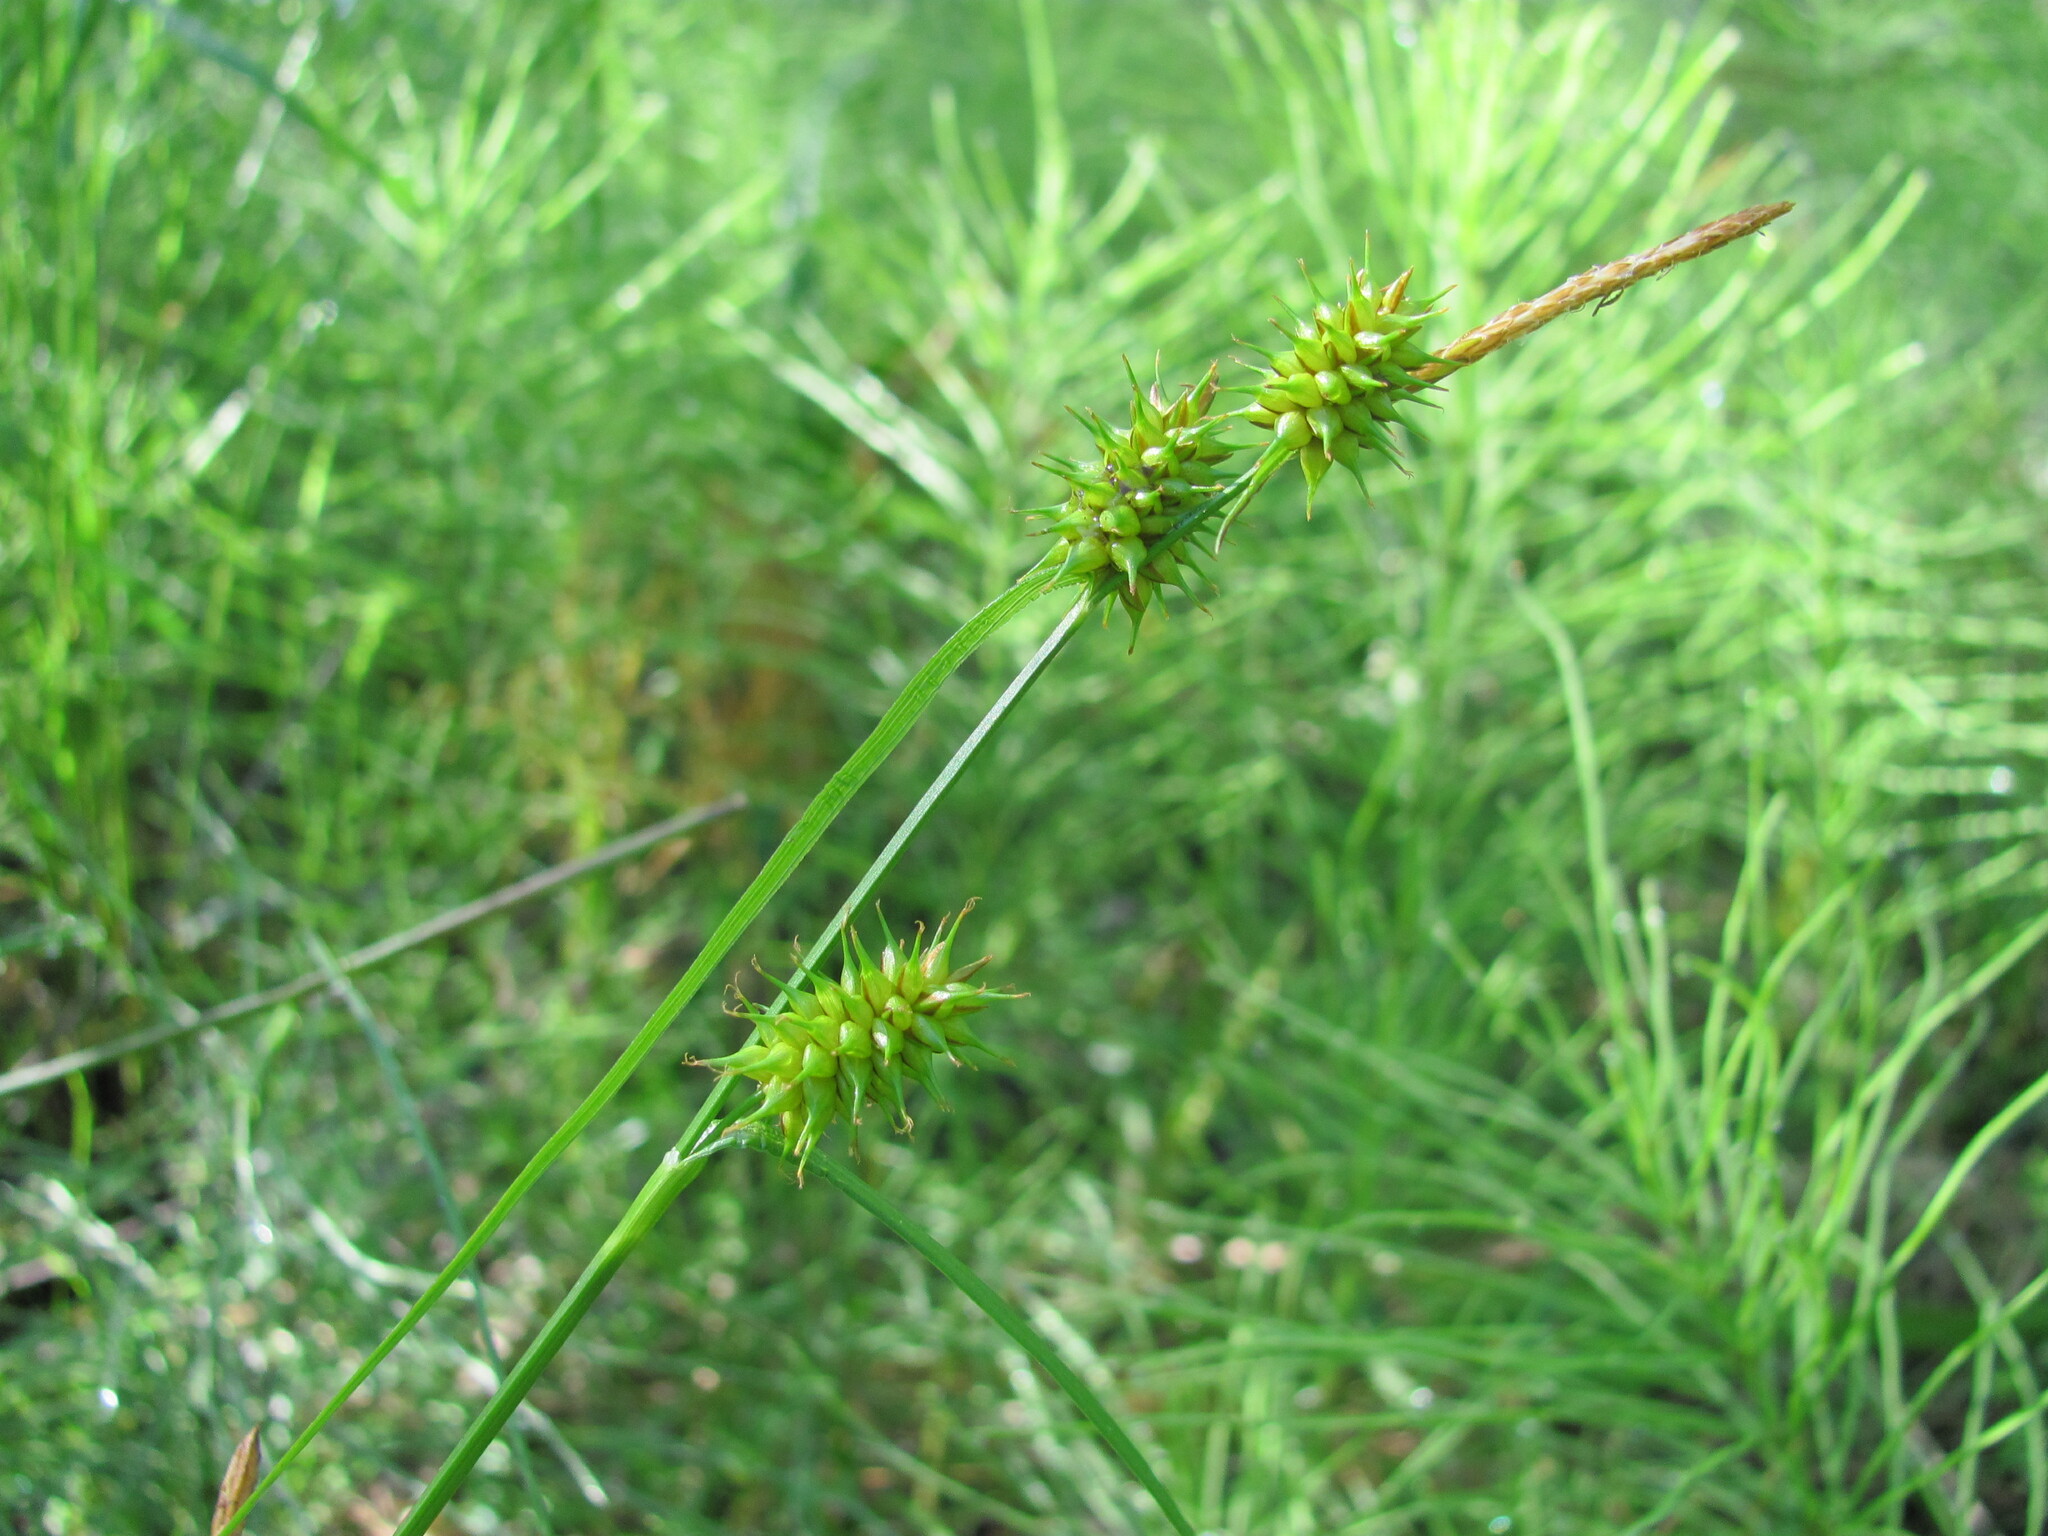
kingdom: Plantae
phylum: Tracheophyta
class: Liliopsida
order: Poales
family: Cyperaceae
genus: Carex
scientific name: Carex flava
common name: Large yellow-sedge
